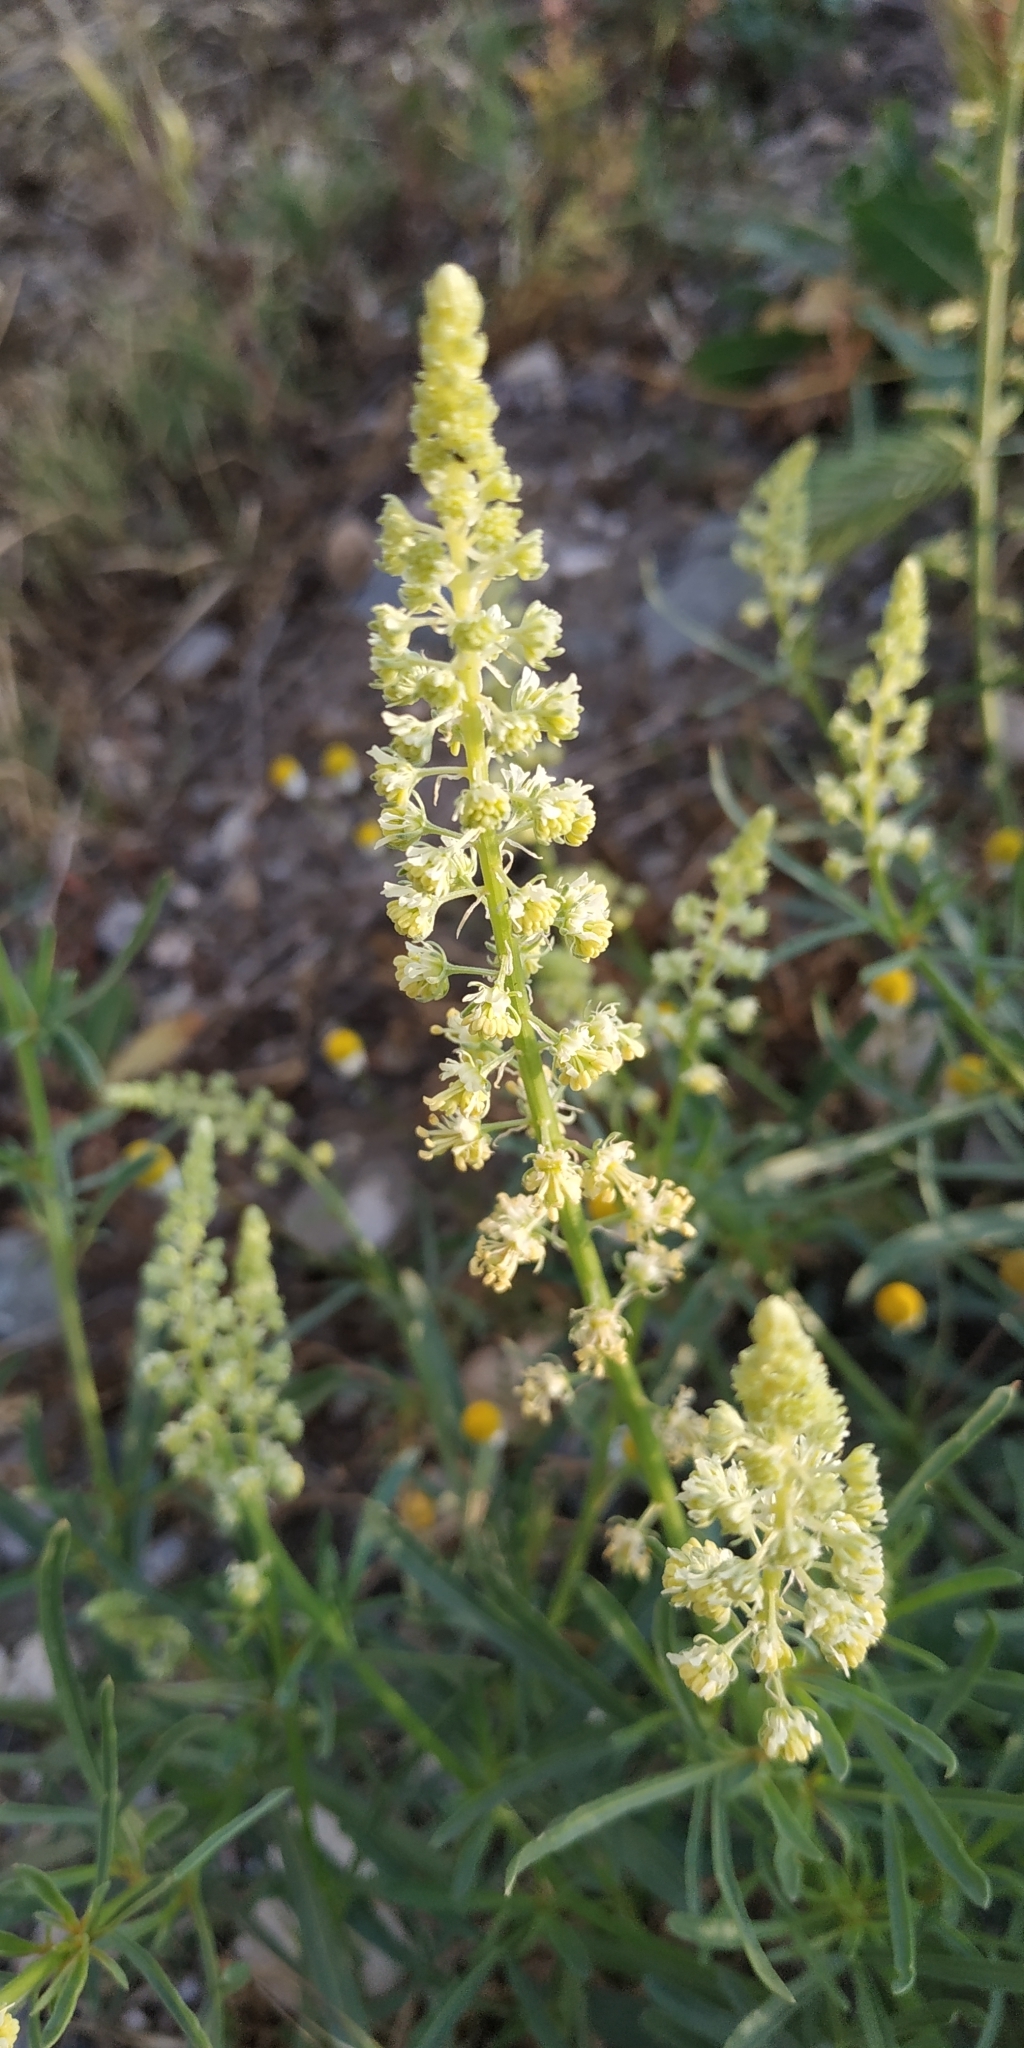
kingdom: Plantae
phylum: Tracheophyta
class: Magnoliopsida
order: Brassicales
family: Resedaceae
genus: Reseda
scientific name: Reseda lutea
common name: Wild mignonette
